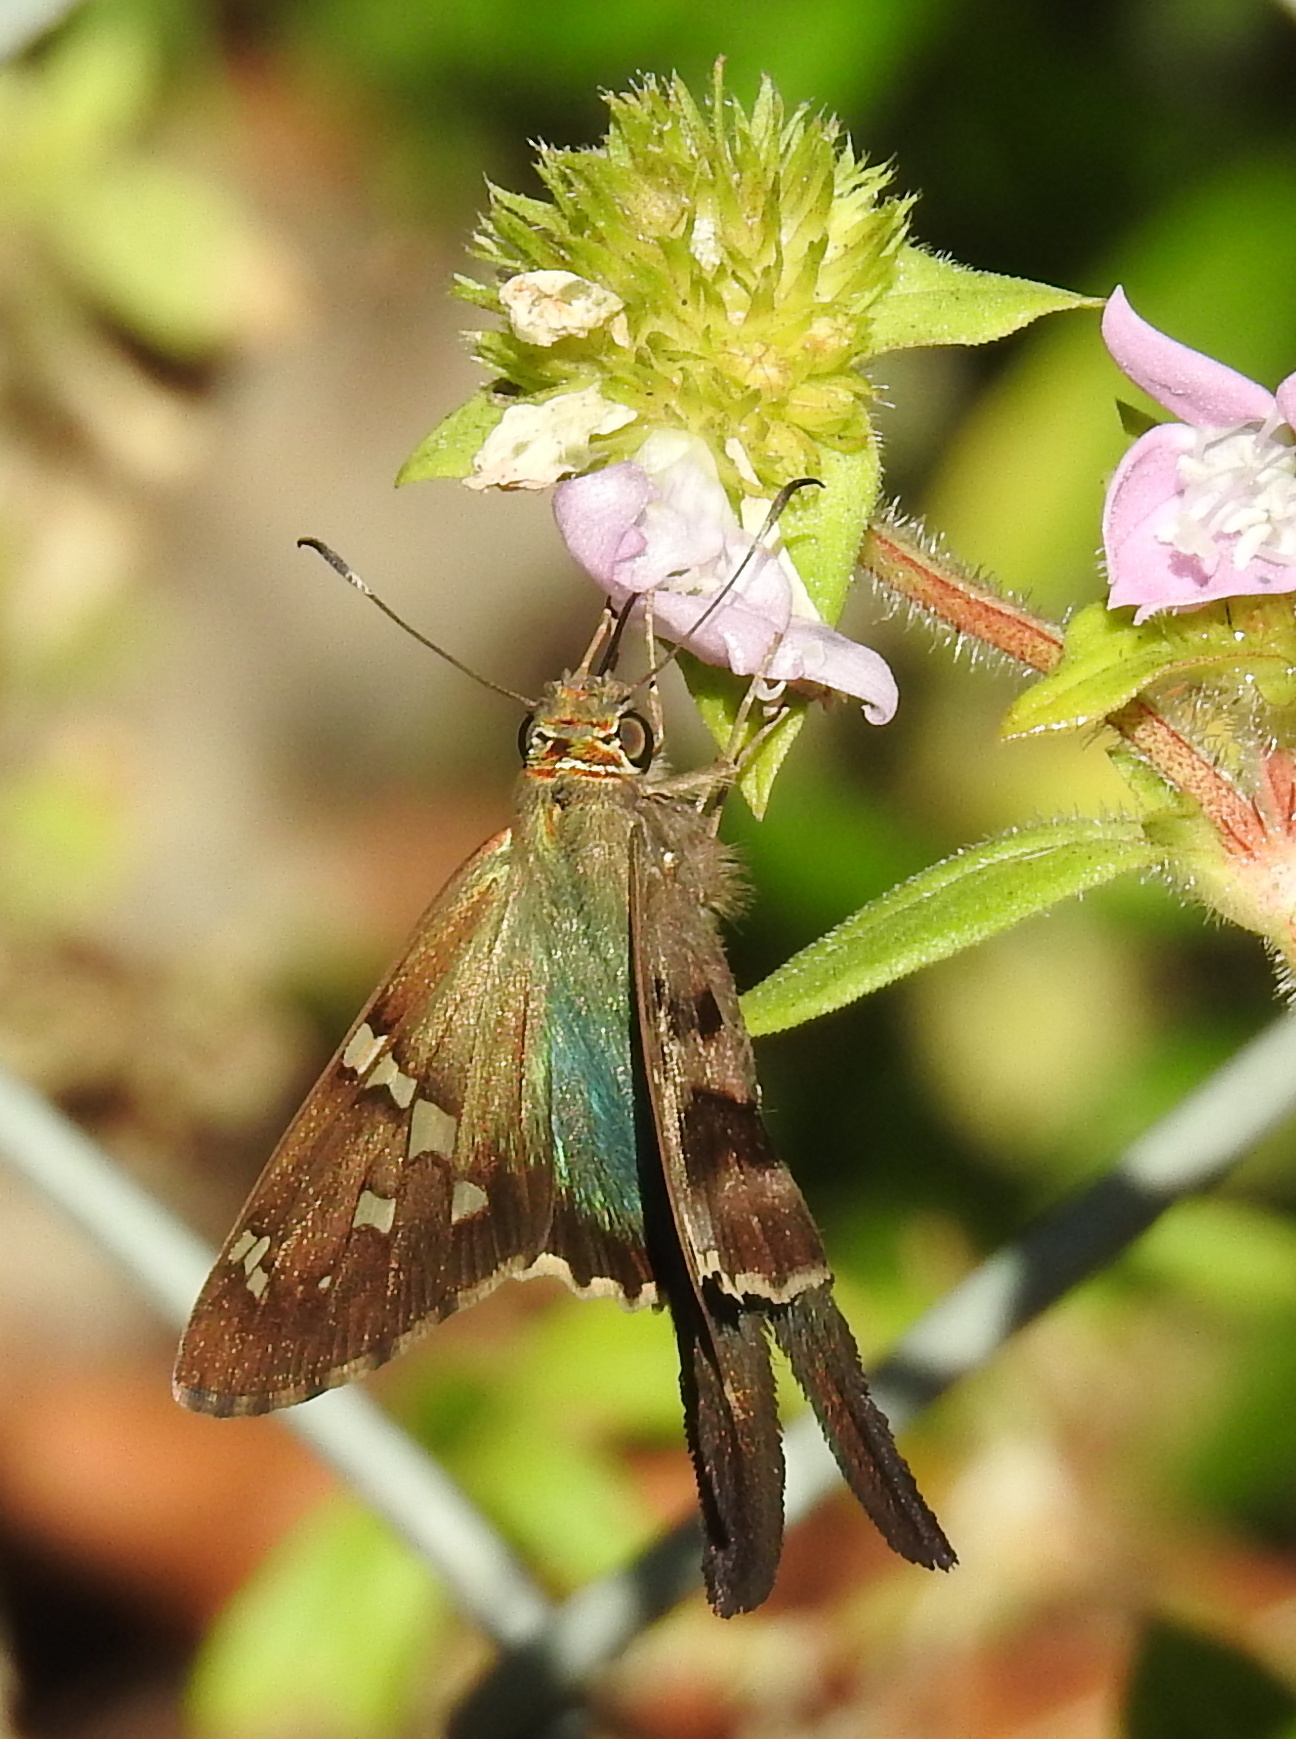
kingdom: Animalia
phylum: Arthropoda
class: Insecta
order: Lepidoptera
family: Hesperiidae
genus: Urbanus
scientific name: Urbanus proteus
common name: Long-tailed skipper
